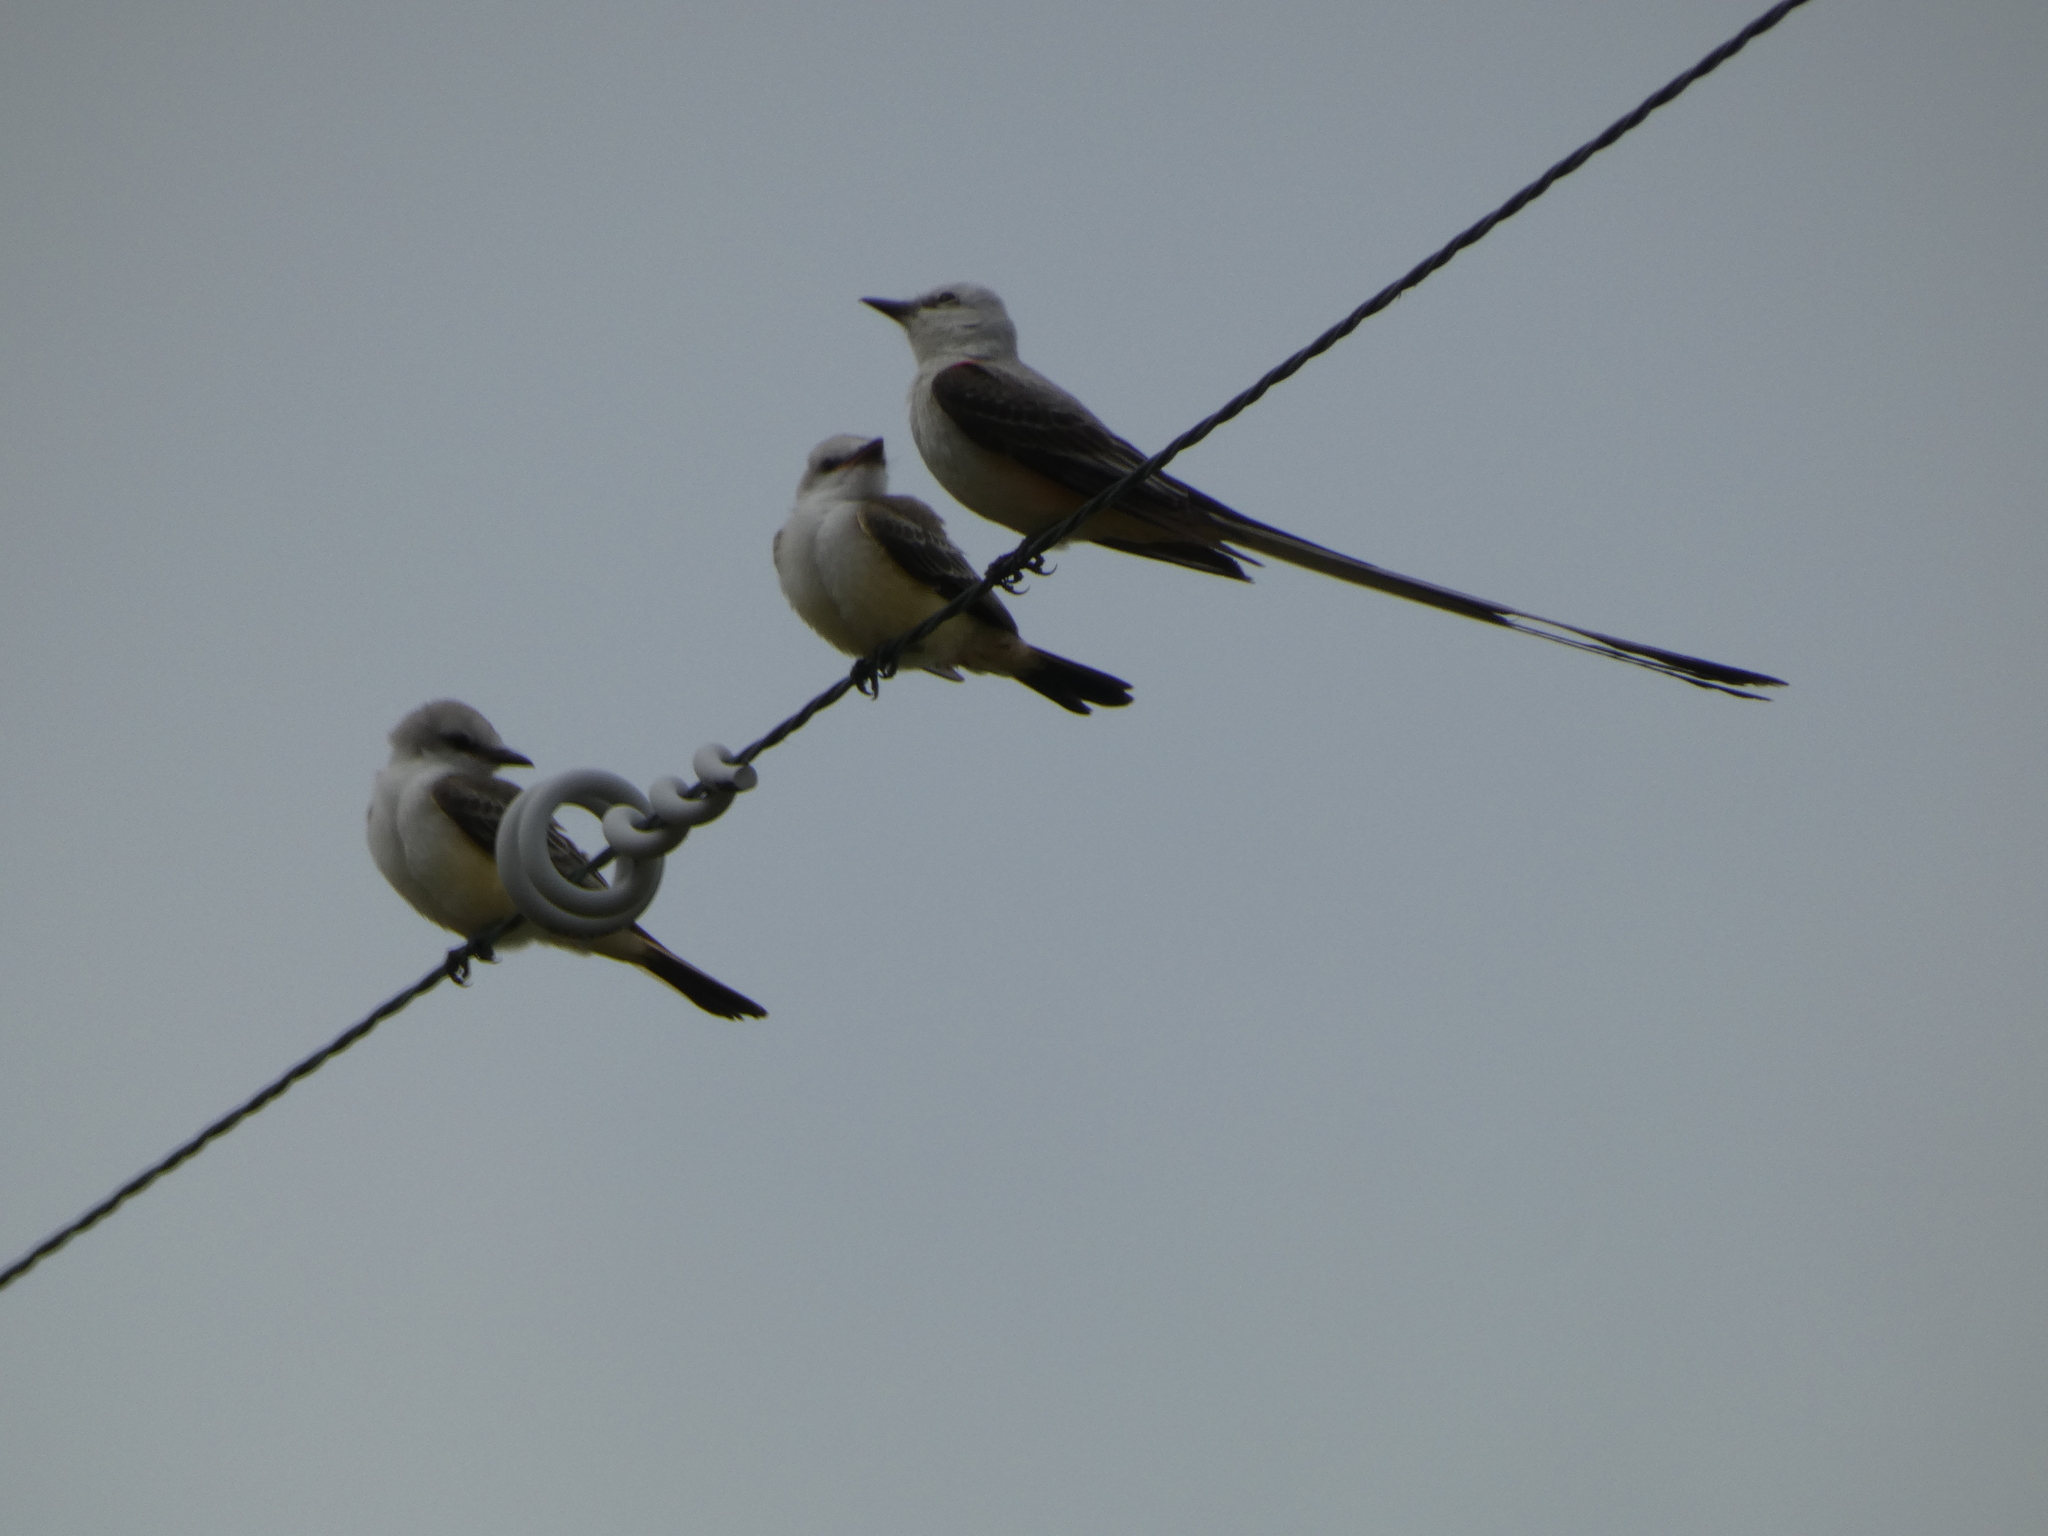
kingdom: Animalia
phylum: Chordata
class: Aves
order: Passeriformes
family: Tyrannidae
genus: Tyrannus
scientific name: Tyrannus forficatus
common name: Scissor-tailed flycatcher
